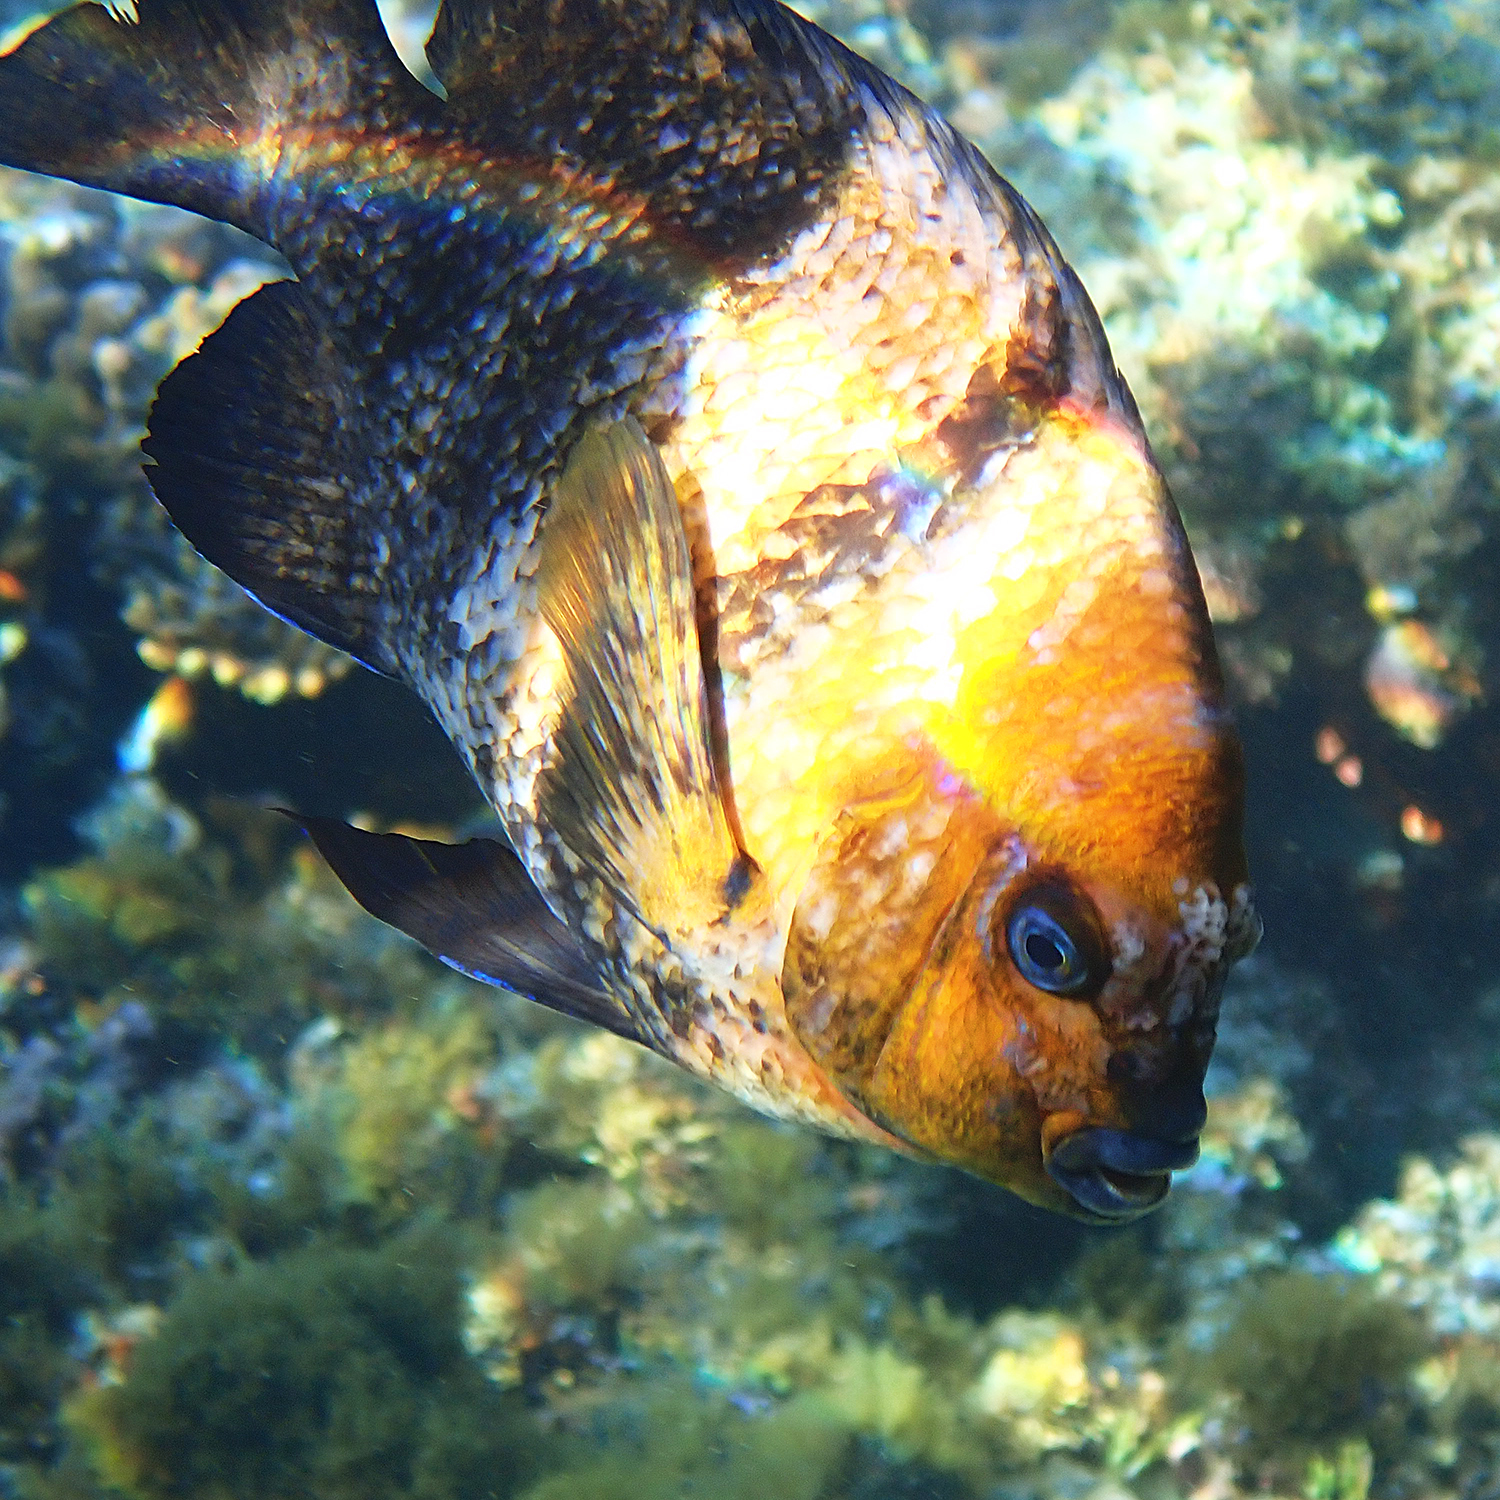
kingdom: Animalia
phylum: Chordata
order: Perciformes
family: Pomacentridae
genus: Parma
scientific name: Parma polylepis
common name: Banded parma
